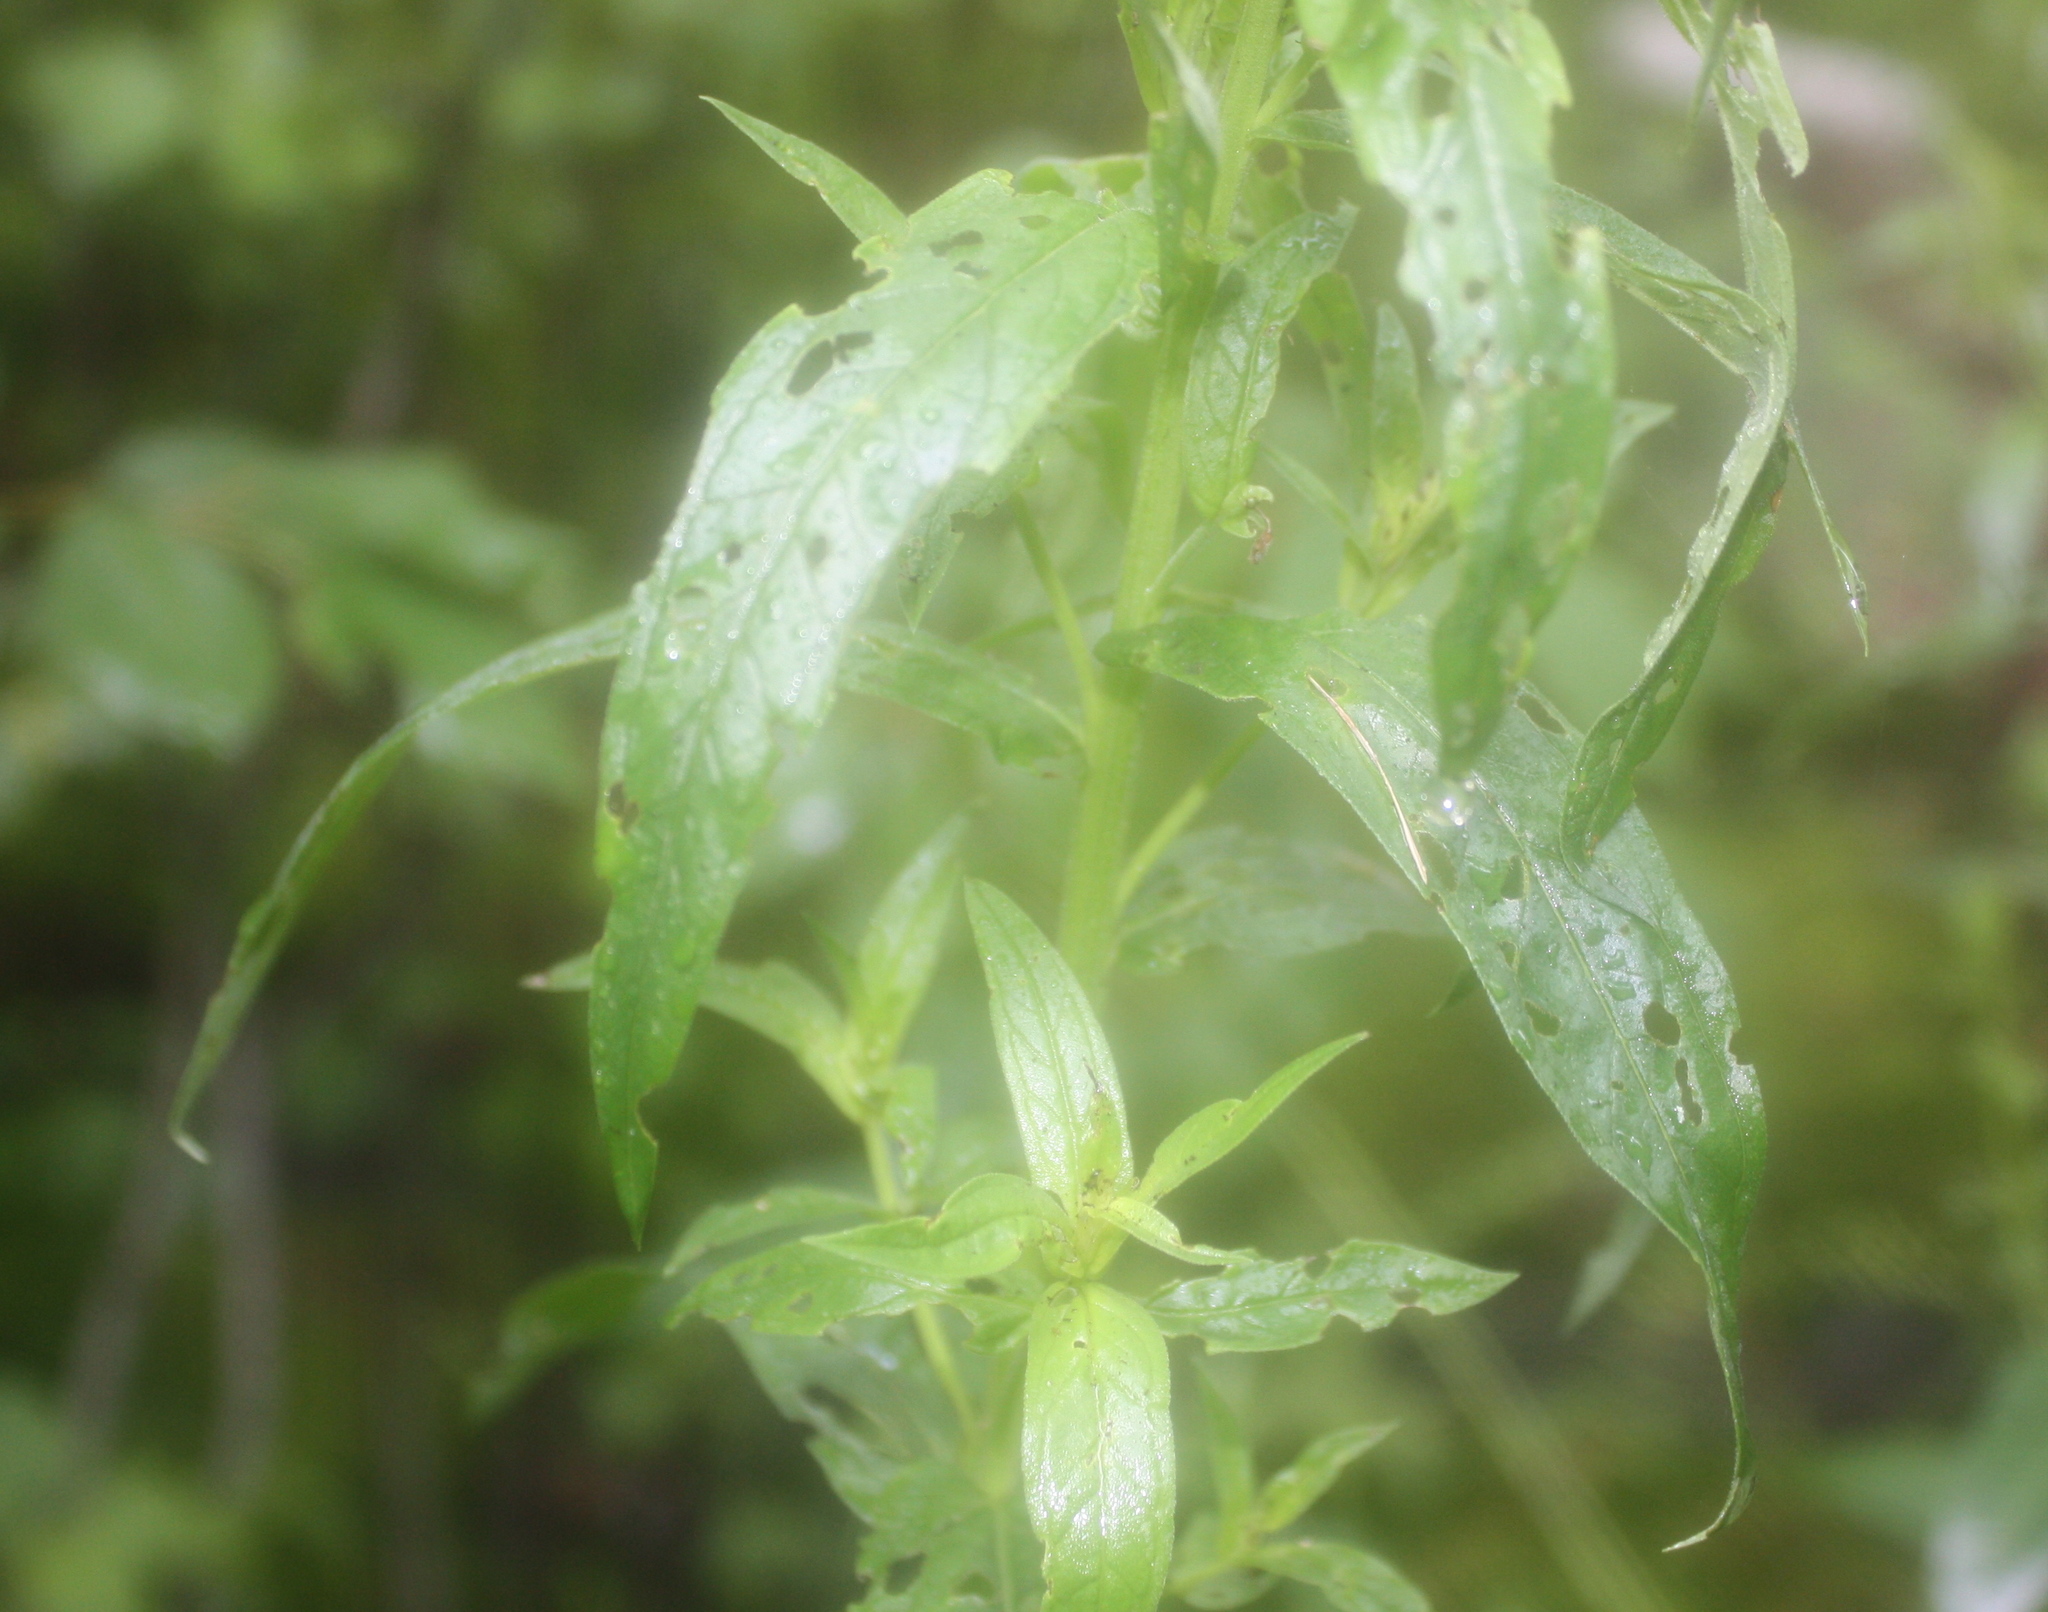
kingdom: Plantae
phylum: Tracheophyta
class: Magnoliopsida
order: Myrtales
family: Lythraceae
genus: Lythrum
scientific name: Lythrum salicaria
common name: Purple loosestrife
